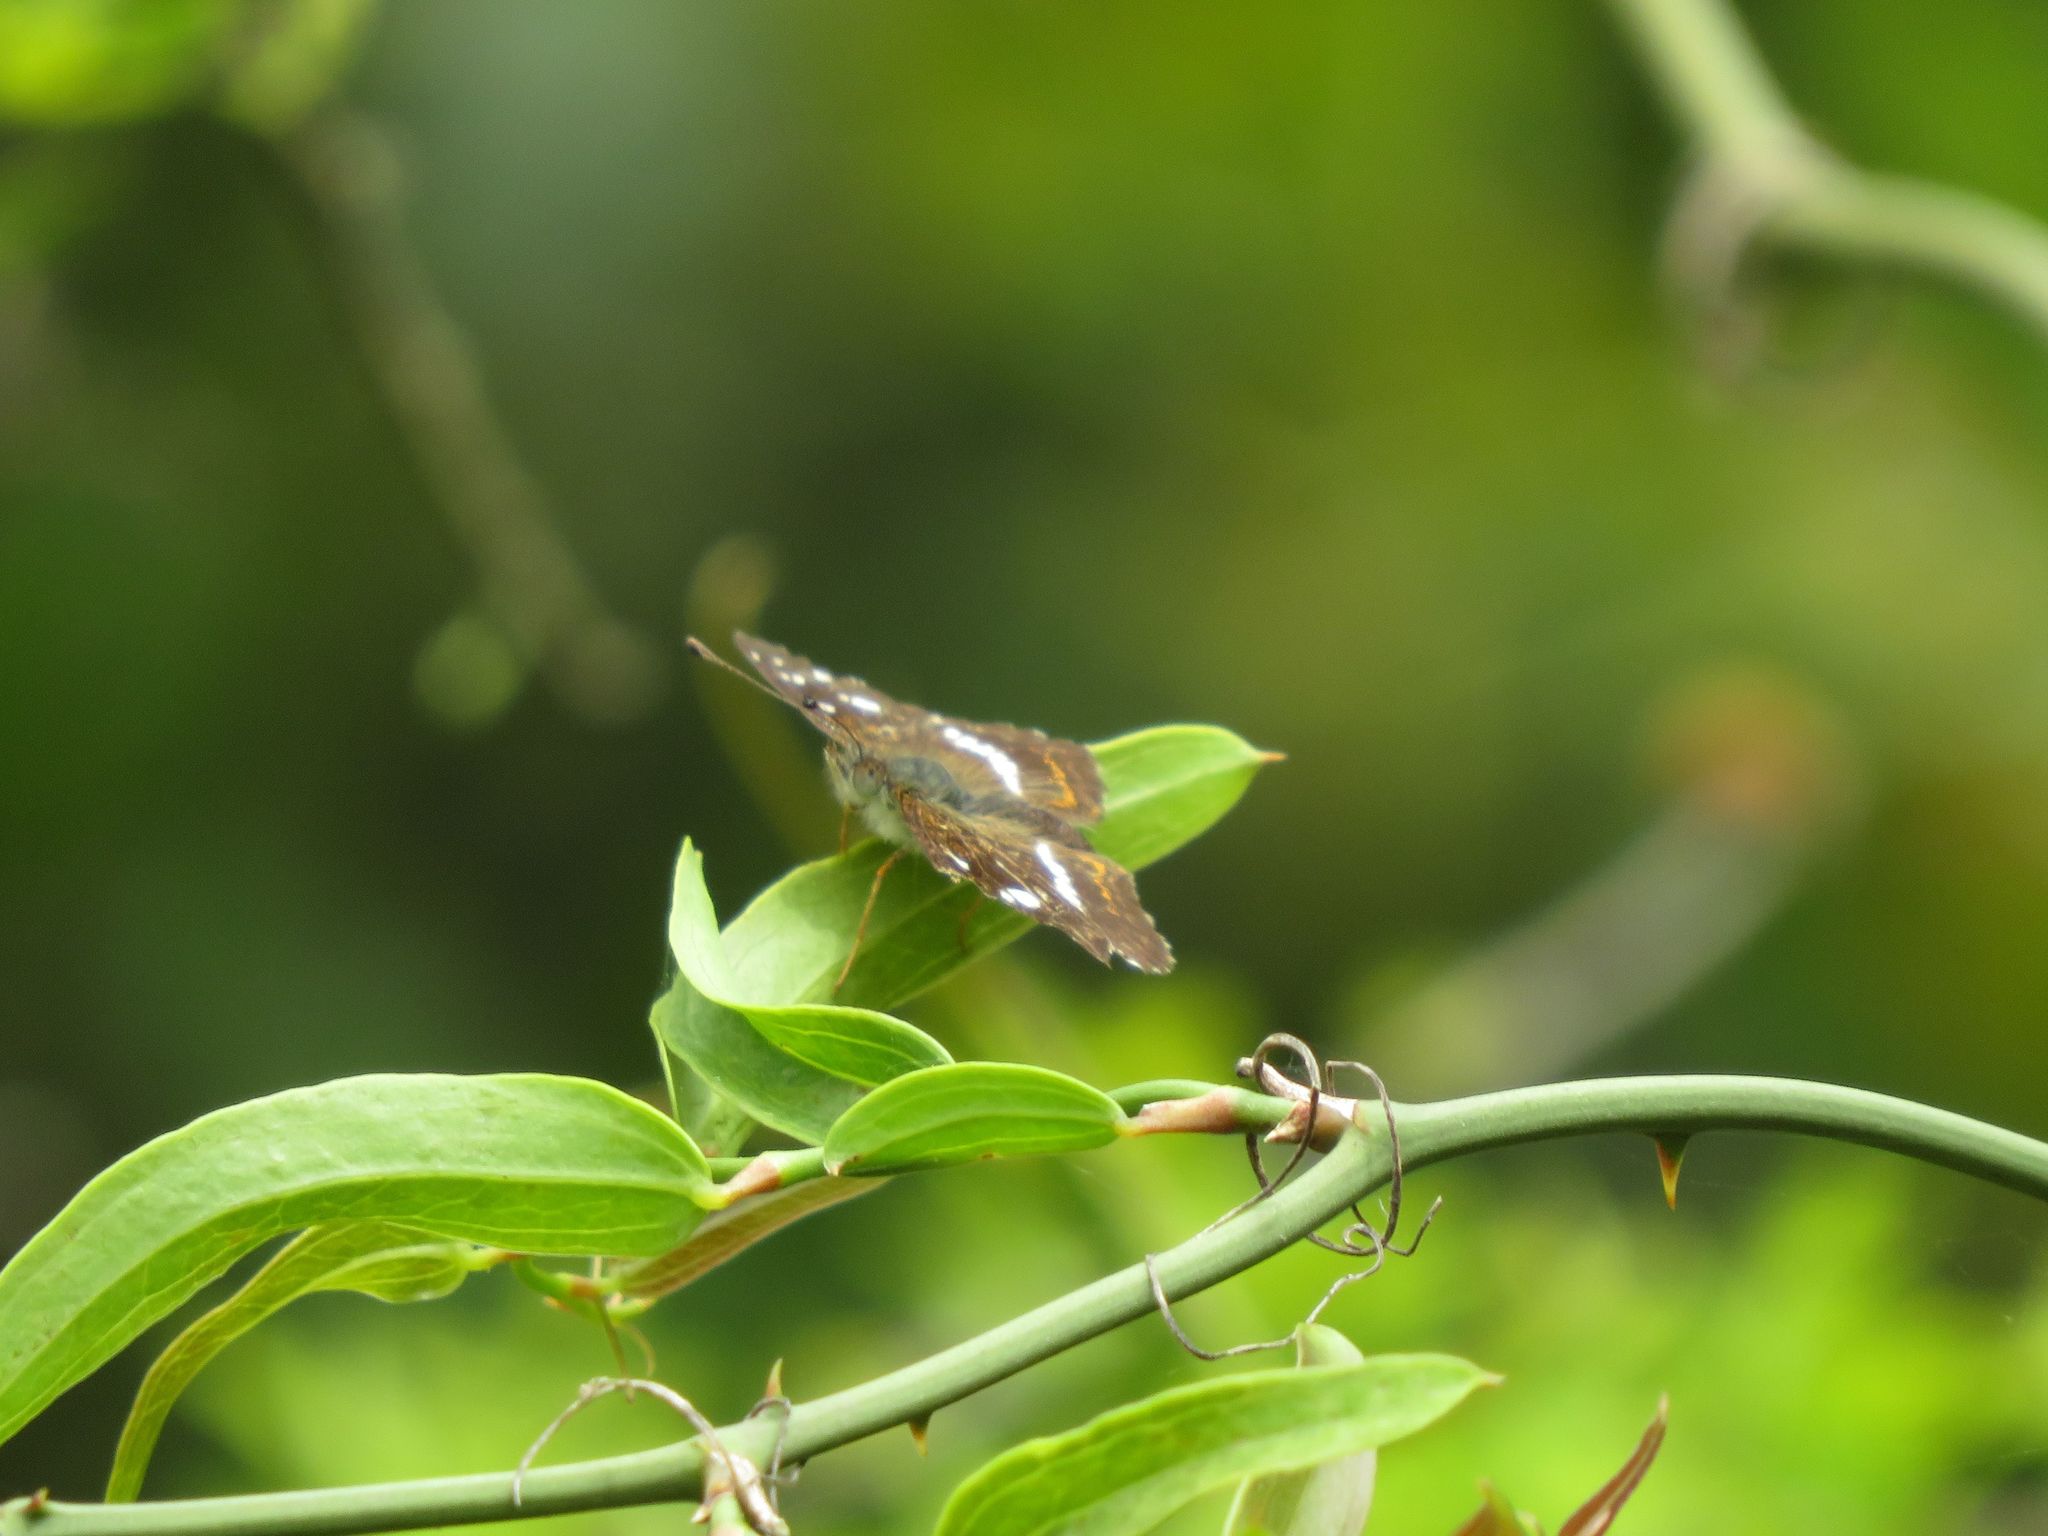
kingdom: Animalia
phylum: Arthropoda
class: Insecta
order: Lepidoptera
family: Nymphalidae
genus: Ortilia
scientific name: Ortilia ithra
